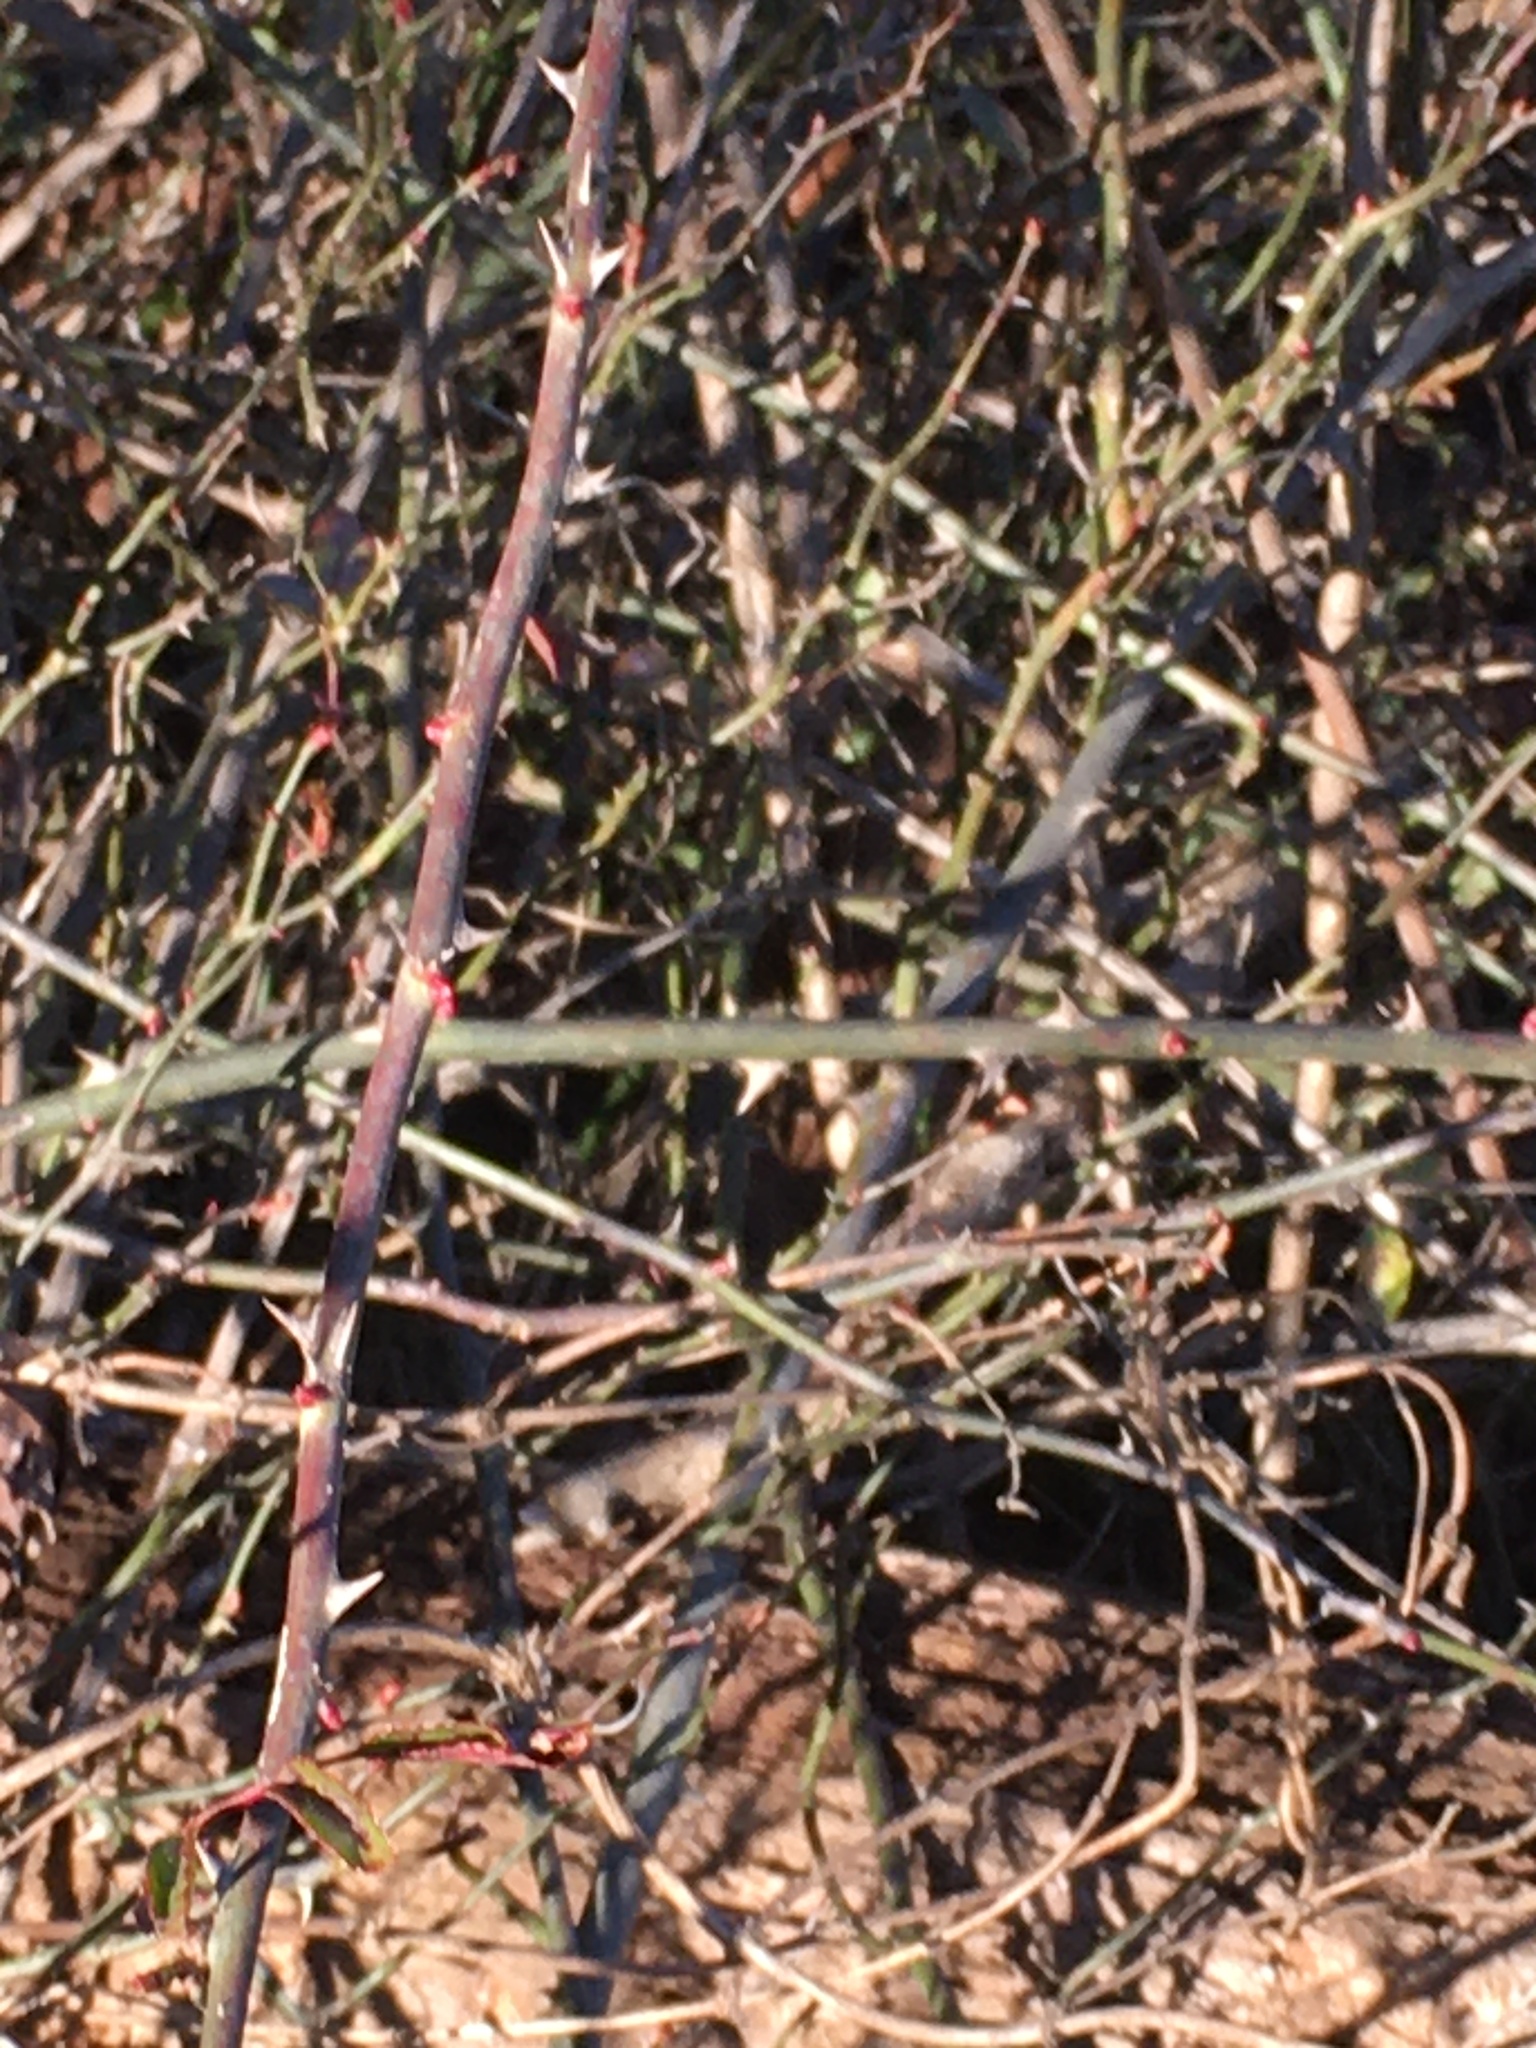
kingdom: Plantae
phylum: Tracheophyta
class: Magnoliopsida
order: Rosales
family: Rosaceae
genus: Rosa
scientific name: Rosa multiflora
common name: Multiflora rose
